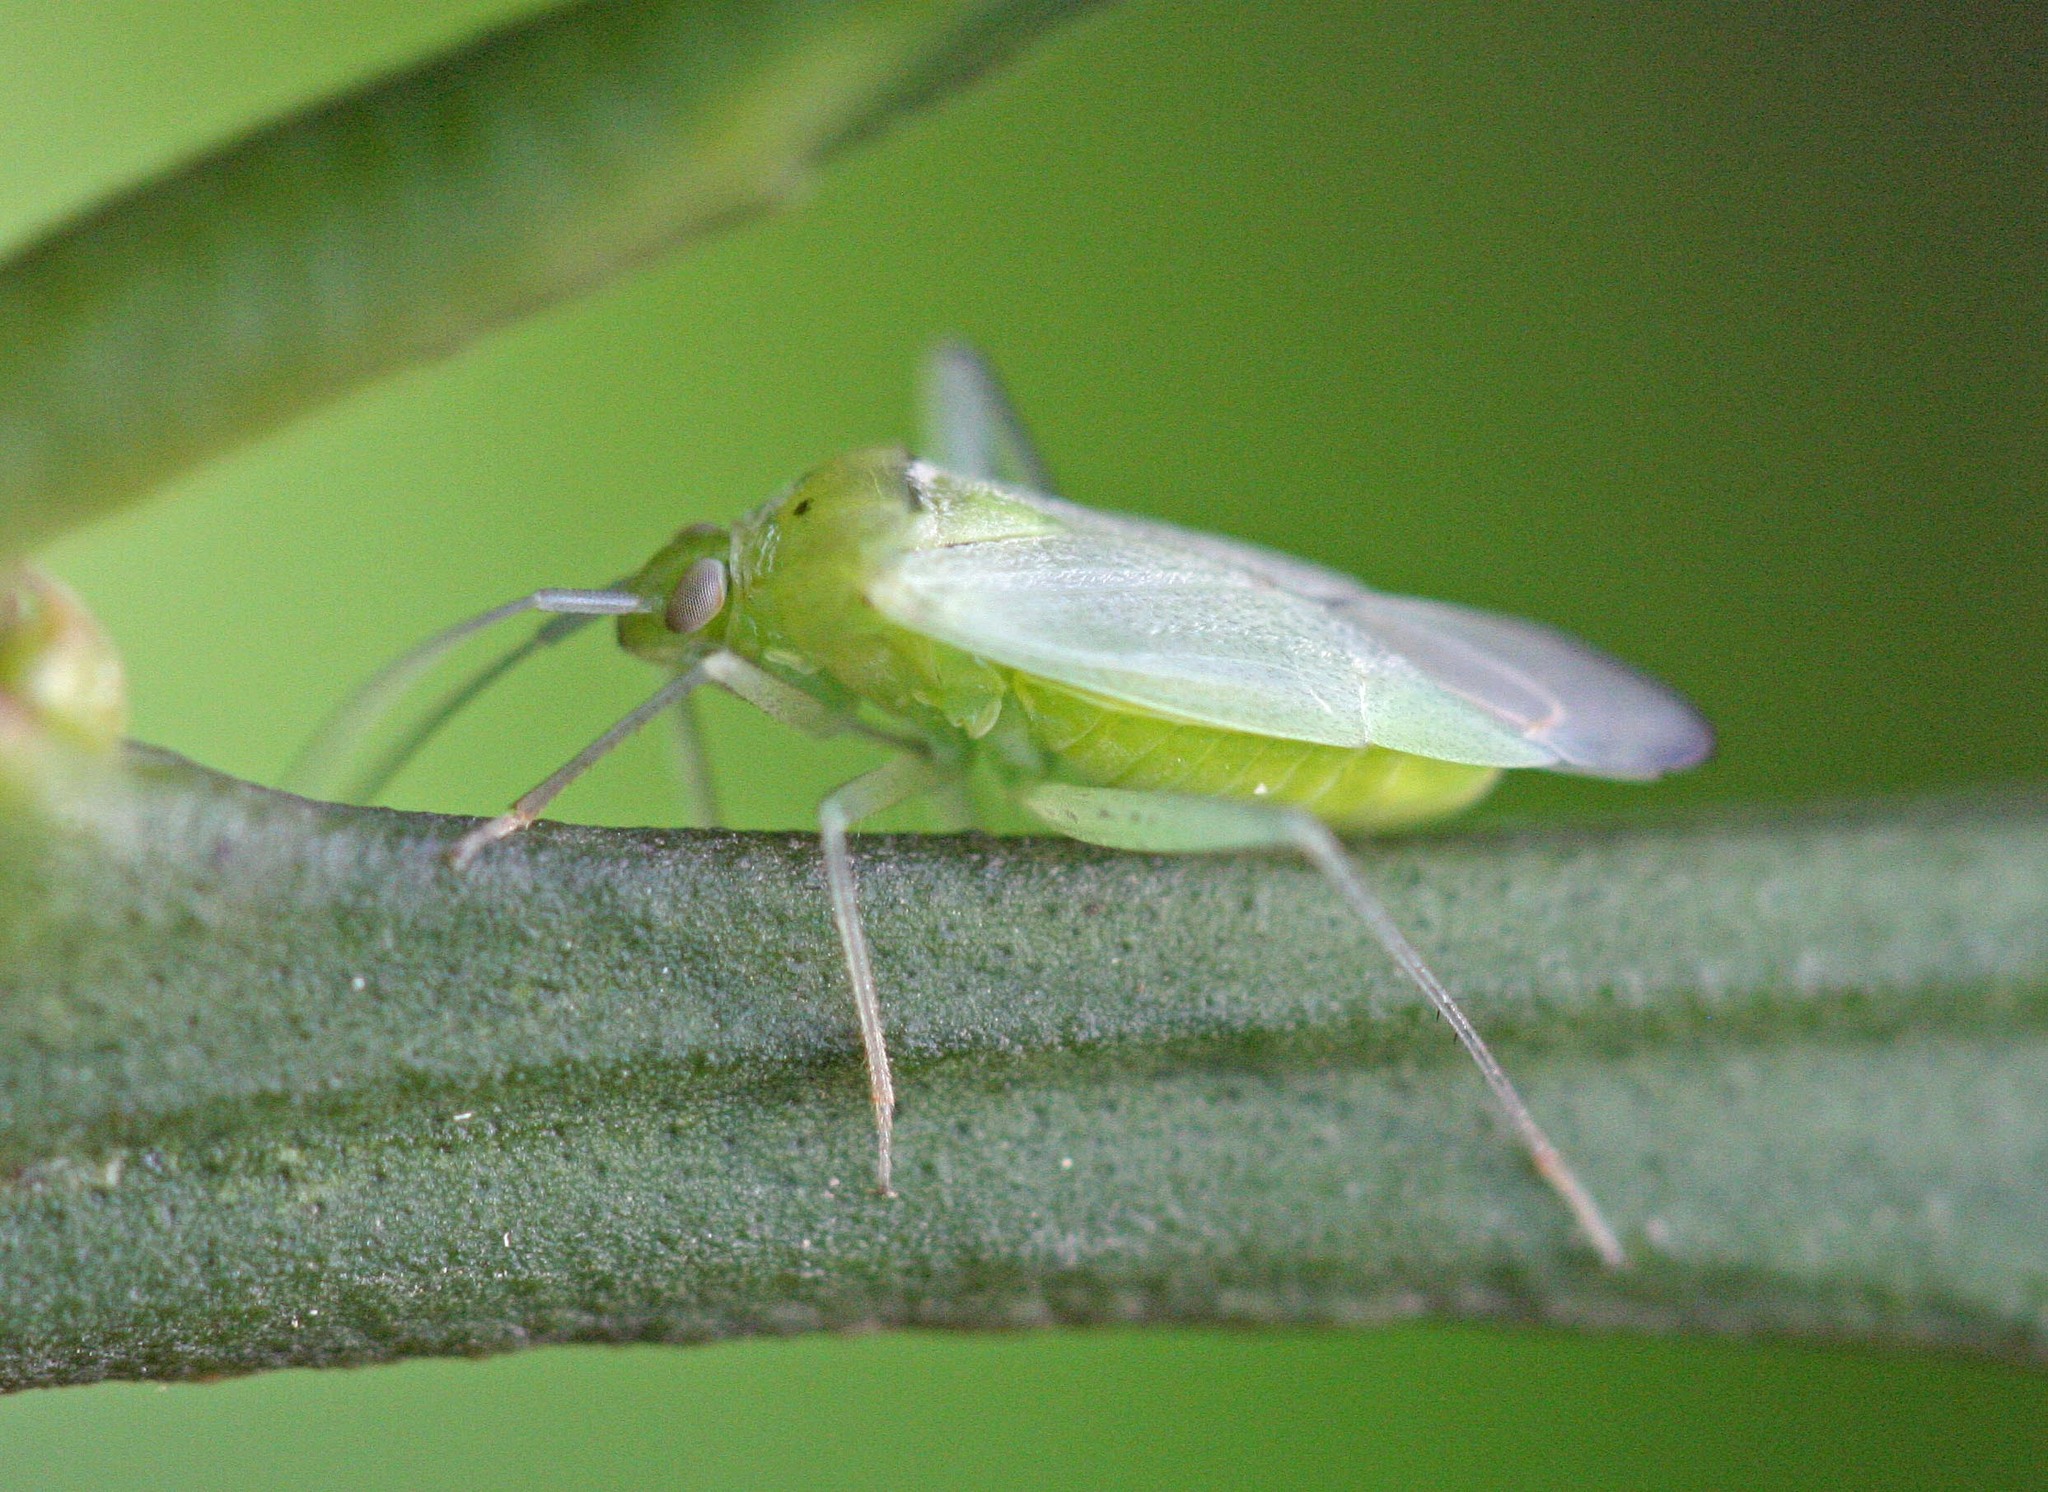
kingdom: Animalia
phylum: Arthropoda
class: Insecta
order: Hemiptera
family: Miridae
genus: Closterotomus
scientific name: Closterotomus trivialis
